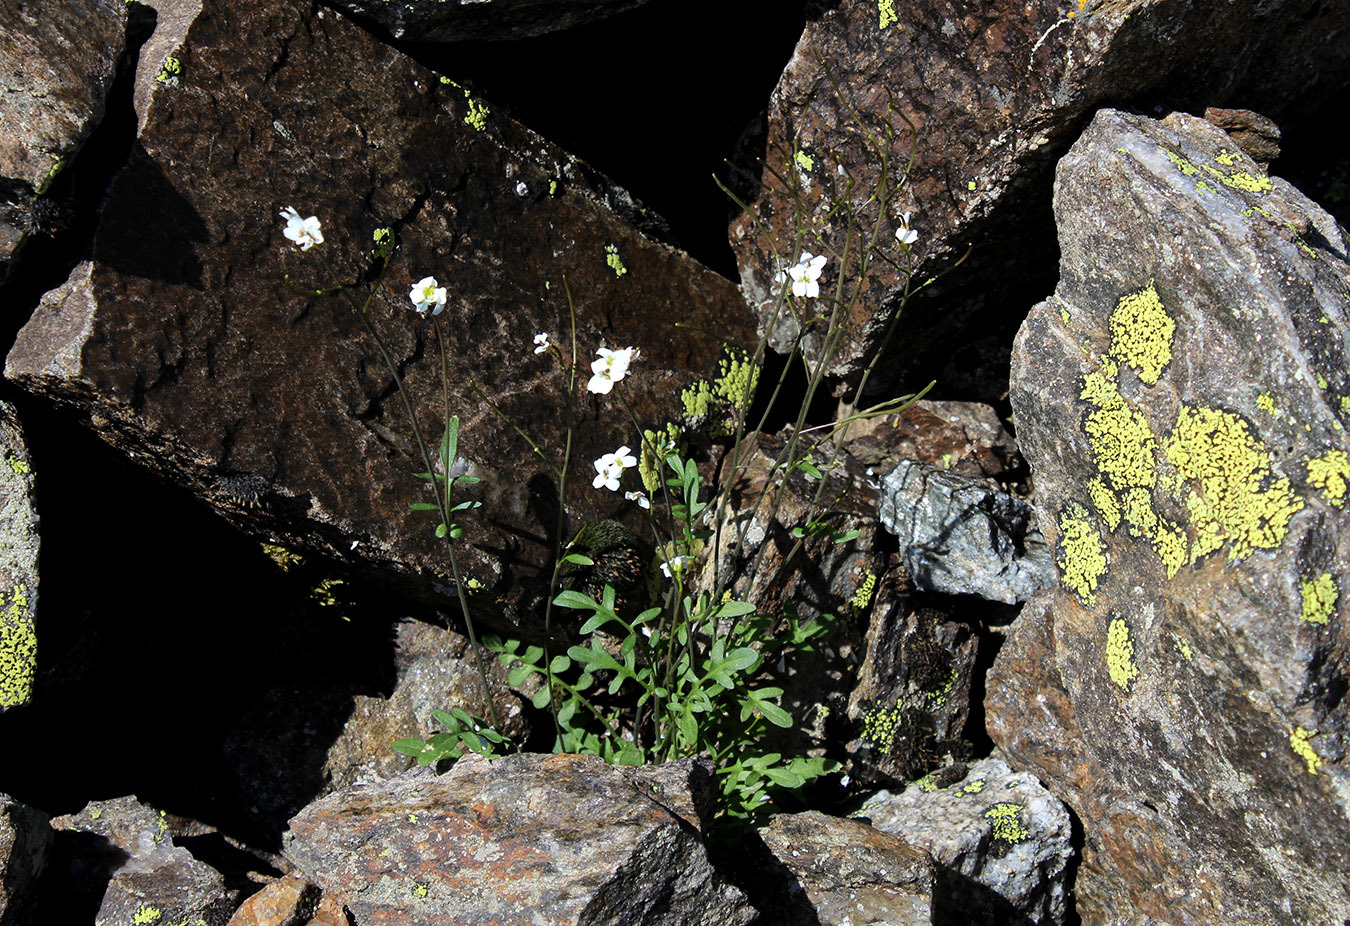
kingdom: Plantae
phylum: Tracheophyta
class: Magnoliopsida
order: Brassicales
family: Brassicaceae
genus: Murbeckiella
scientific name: Murbeckiella huetii
